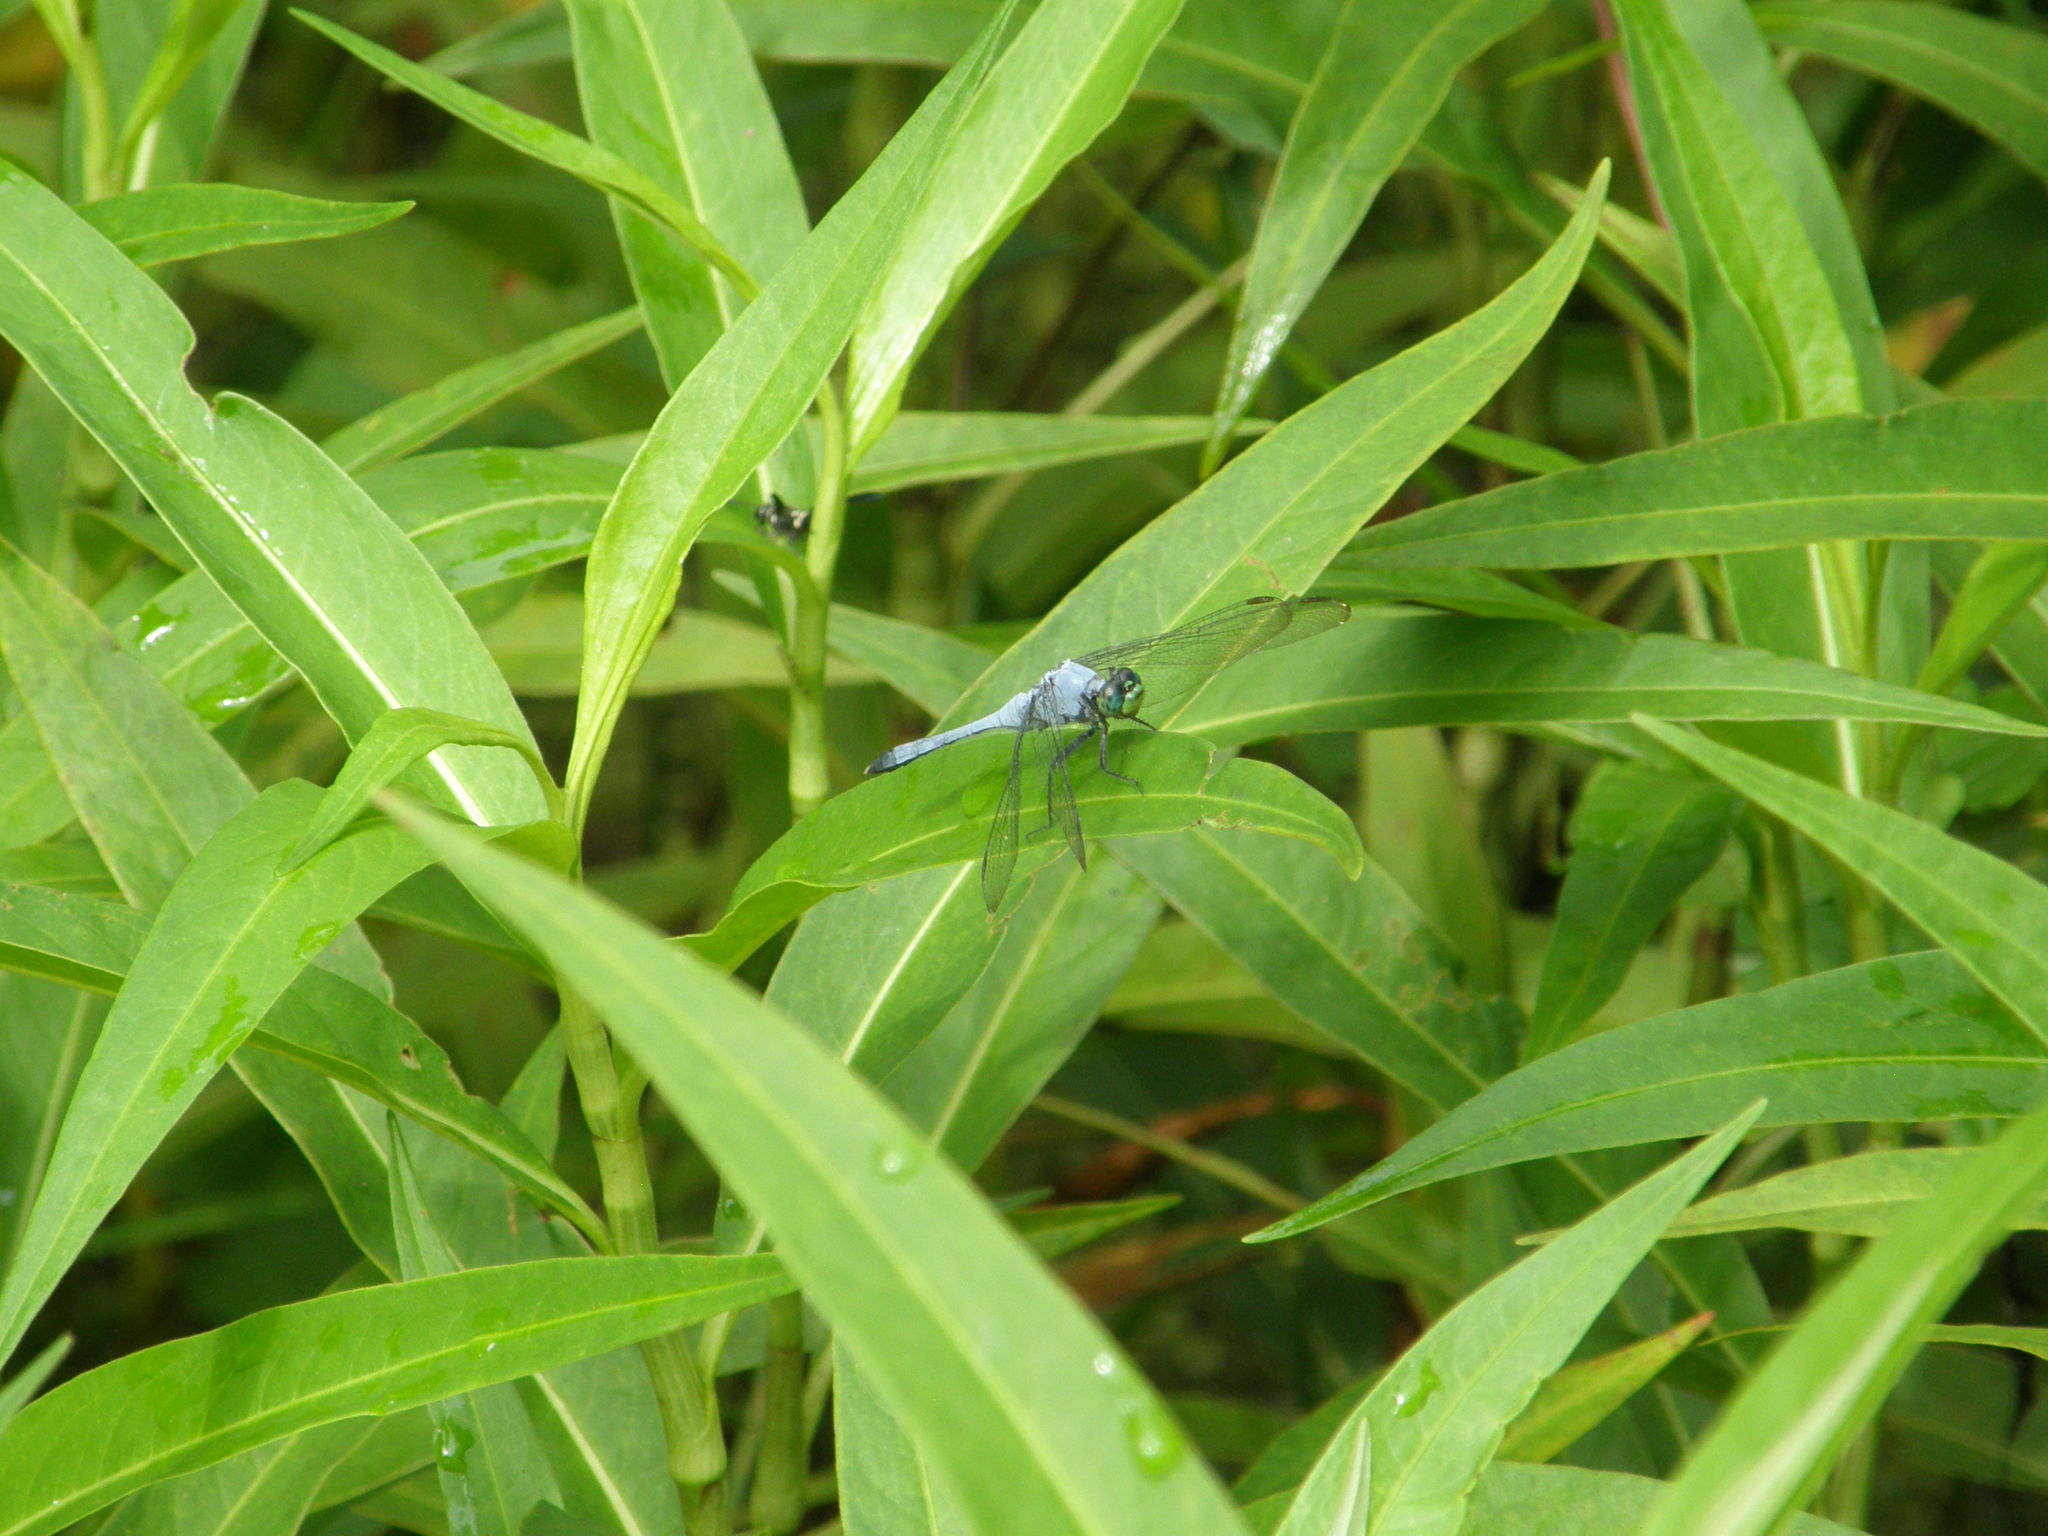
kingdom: Animalia
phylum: Arthropoda
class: Insecta
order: Odonata
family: Libellulidae
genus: Erythemis
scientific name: Erythemis simplicicollis
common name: Eastern pondhawk
